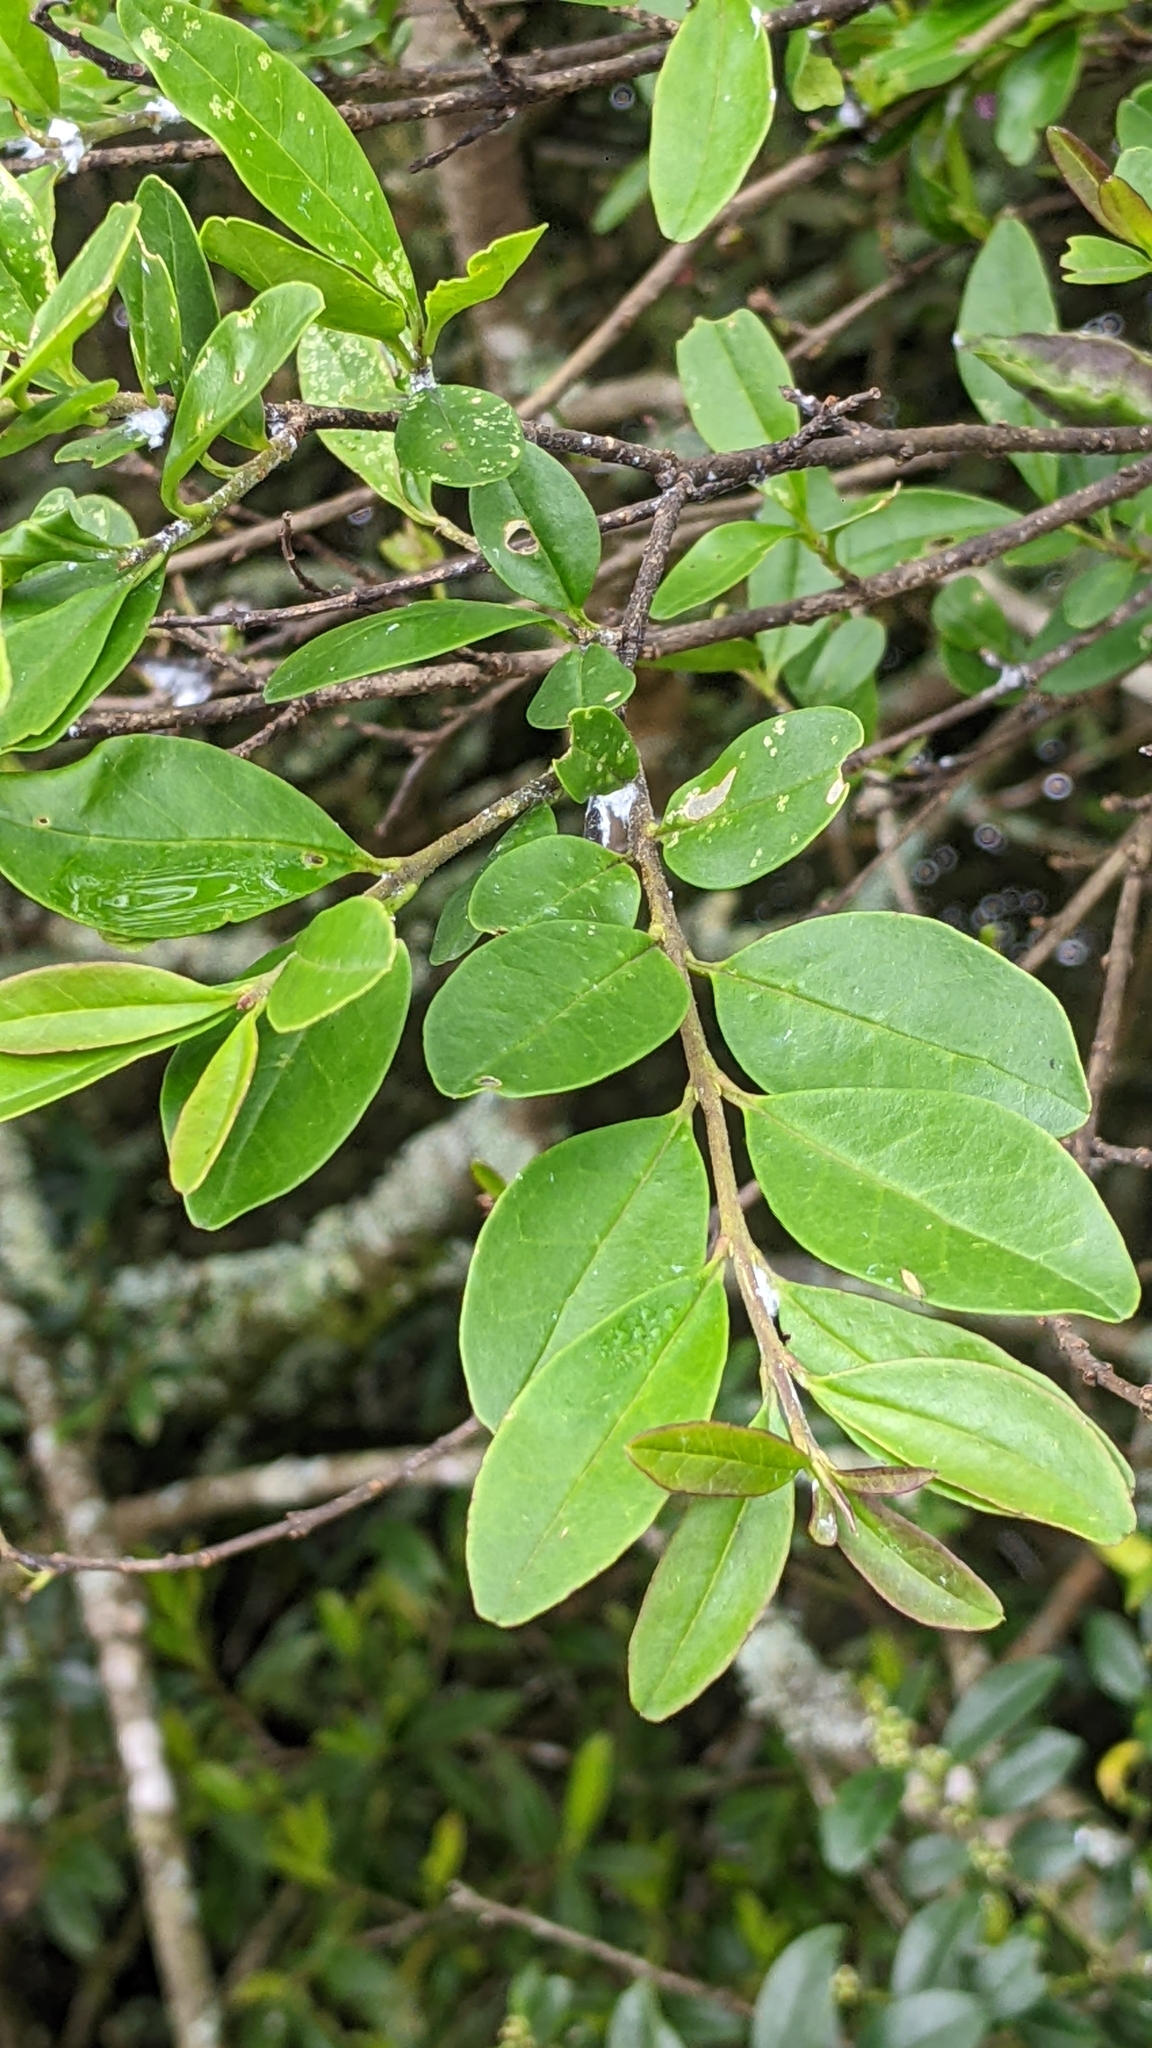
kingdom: Plantae
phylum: Tracheophyta
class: Magnoliopsida
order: Lamiales
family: Oleaceae
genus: Ligustrum
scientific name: Ligustrum sinense
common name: Chinese privet
